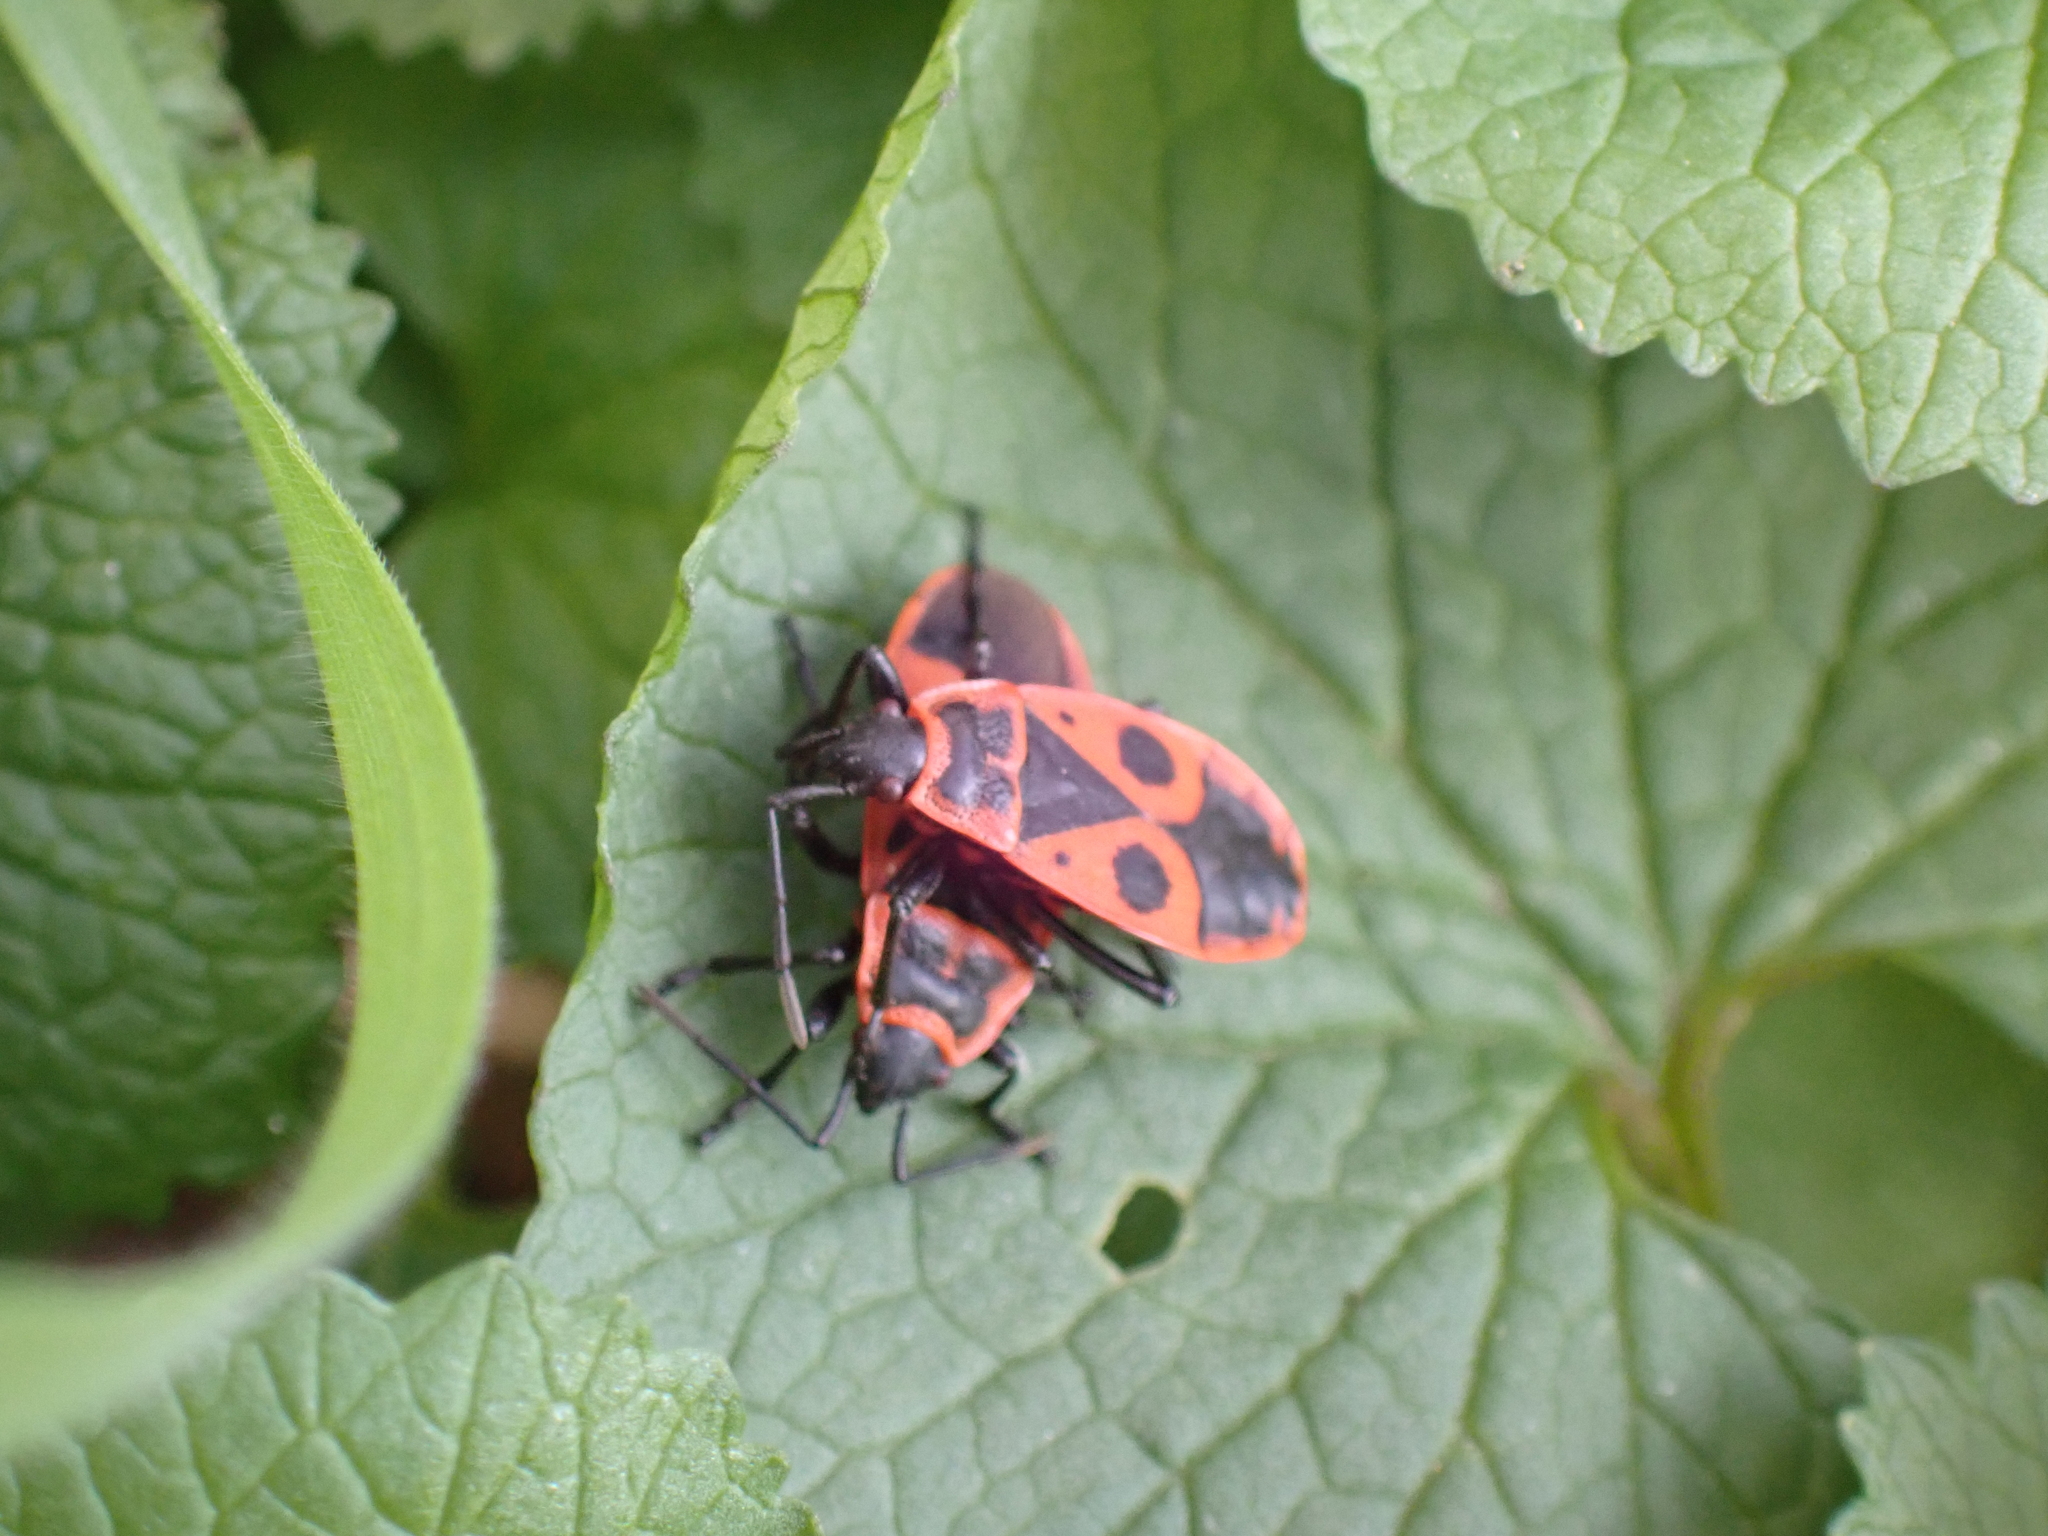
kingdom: Animalia
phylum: Arthropoda
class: Insecta
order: Hemiptera
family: Pyrrhocoridae
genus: Pyrrhocoris
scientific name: Pyrrhocoris apterus
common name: Firebug
